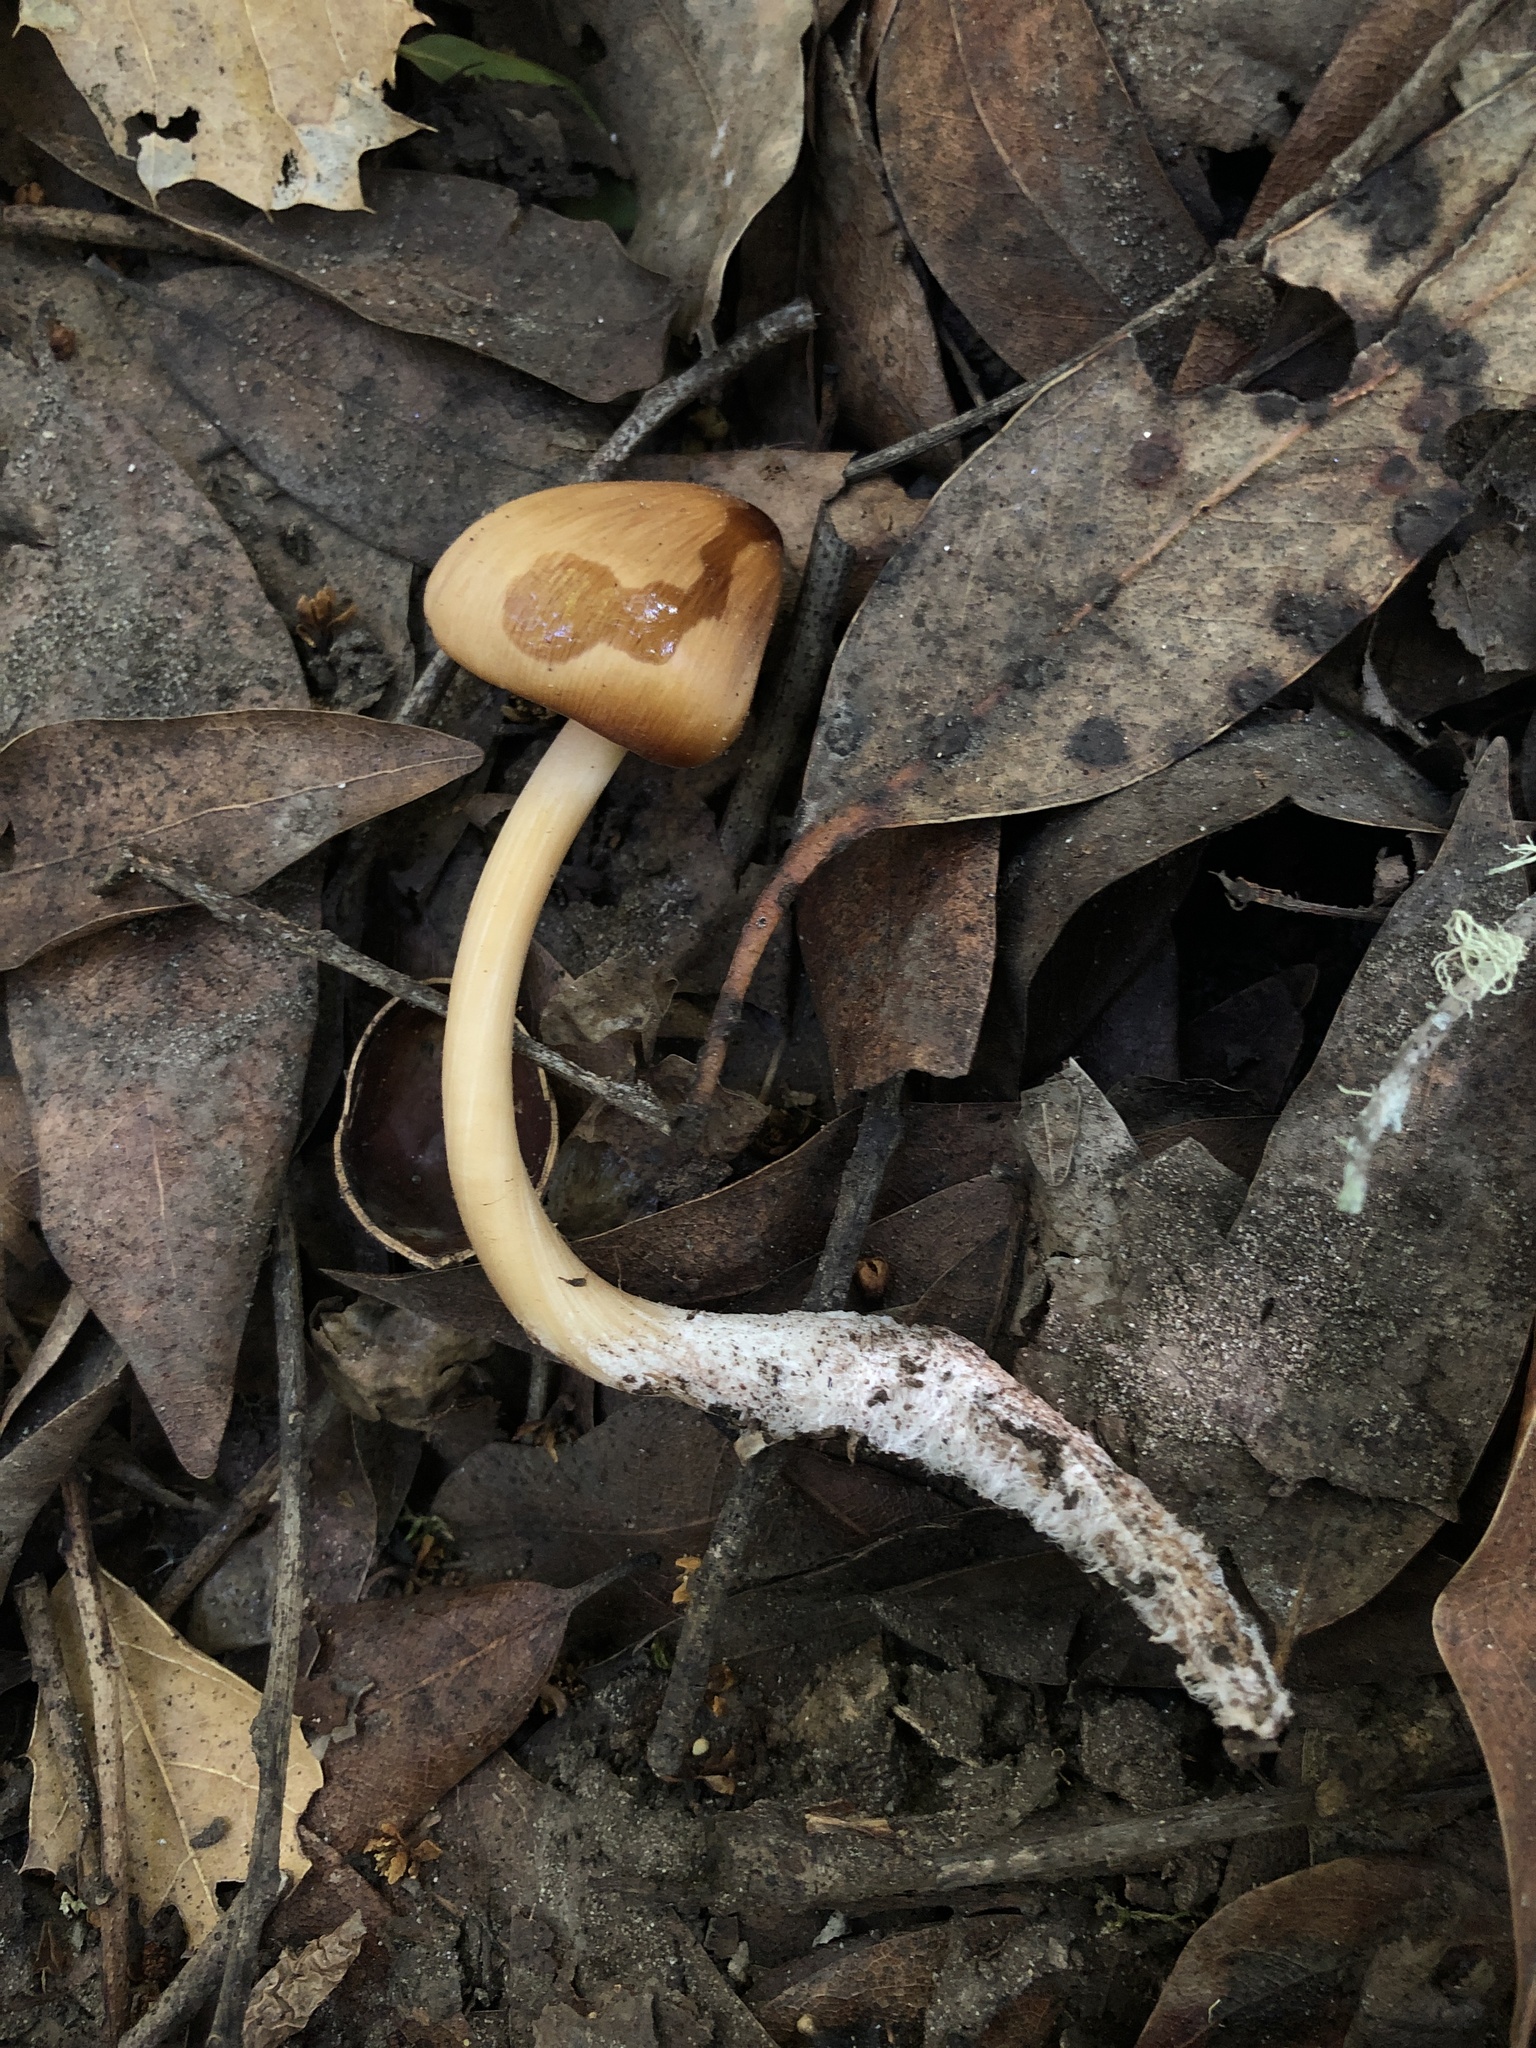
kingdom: Fungi
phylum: Basidiomycota
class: Agaricomycetes
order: Agaricales
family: Tricholomataceae
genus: Caulorhiza
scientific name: Caulorhiza umbonata
